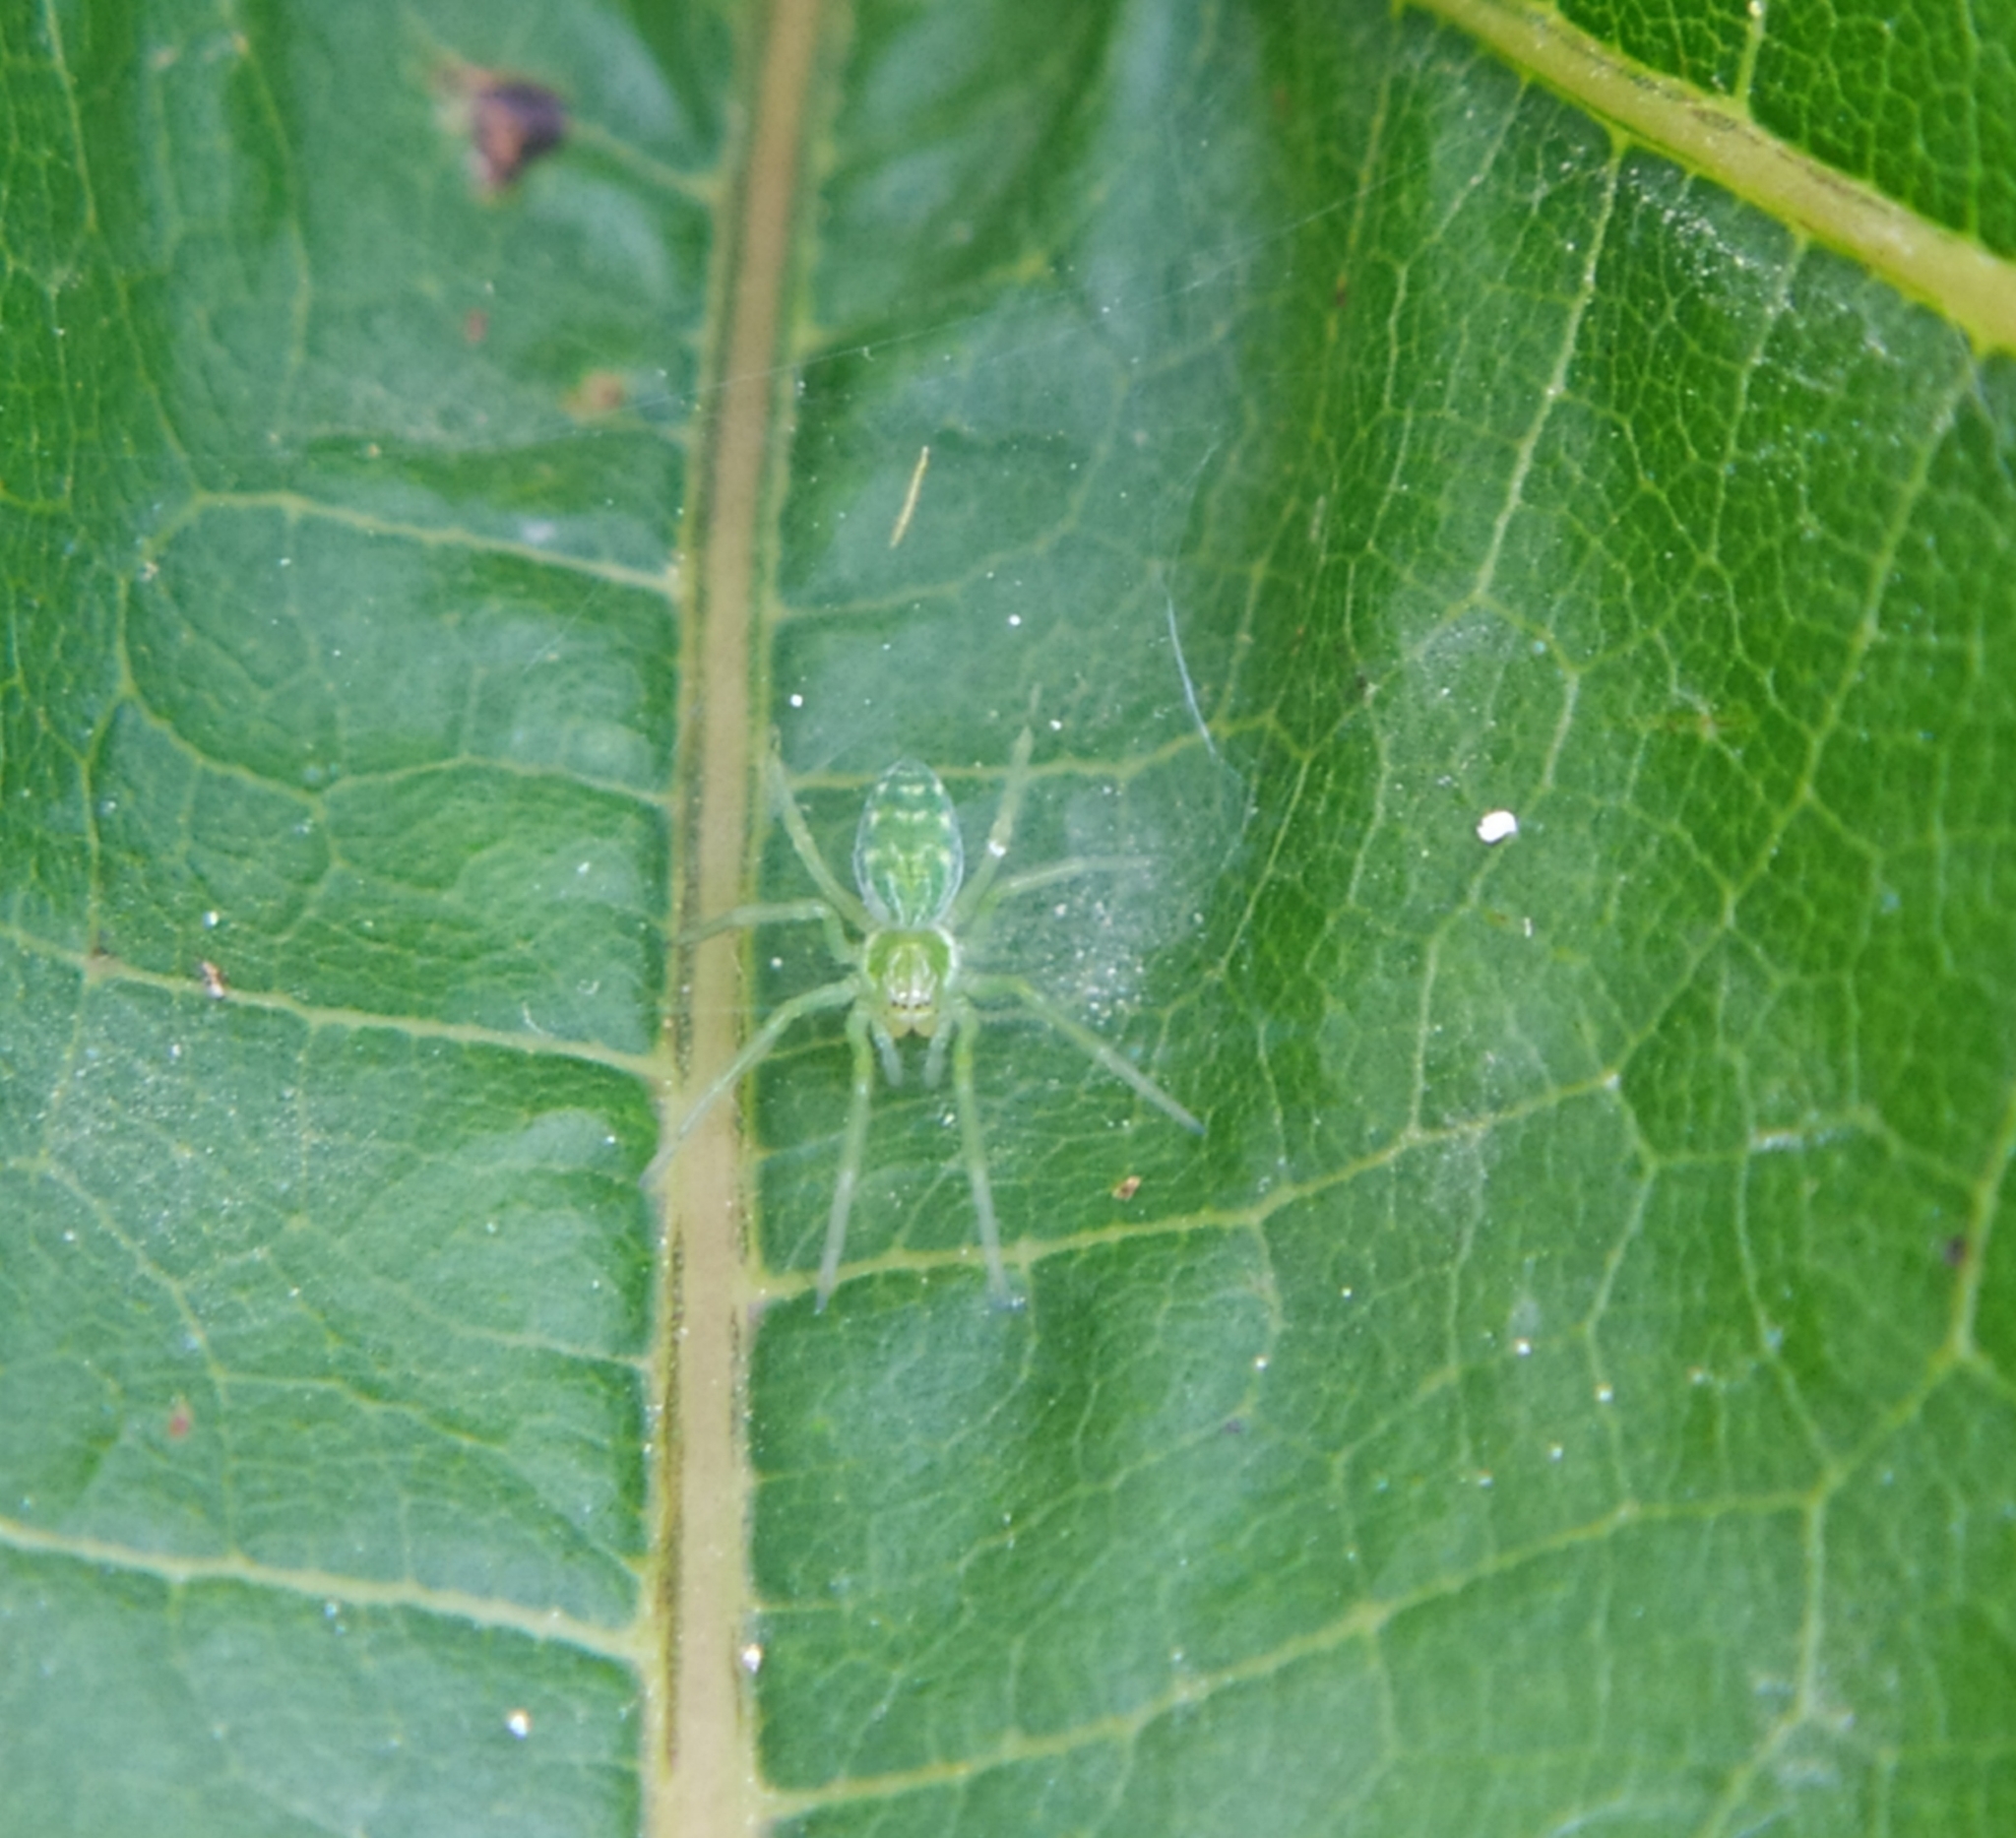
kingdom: Animalia
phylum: Arthropoda
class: Arachnida
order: Araneae
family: Dictynidae
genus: Nigma
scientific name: Nigma walckenaeri
